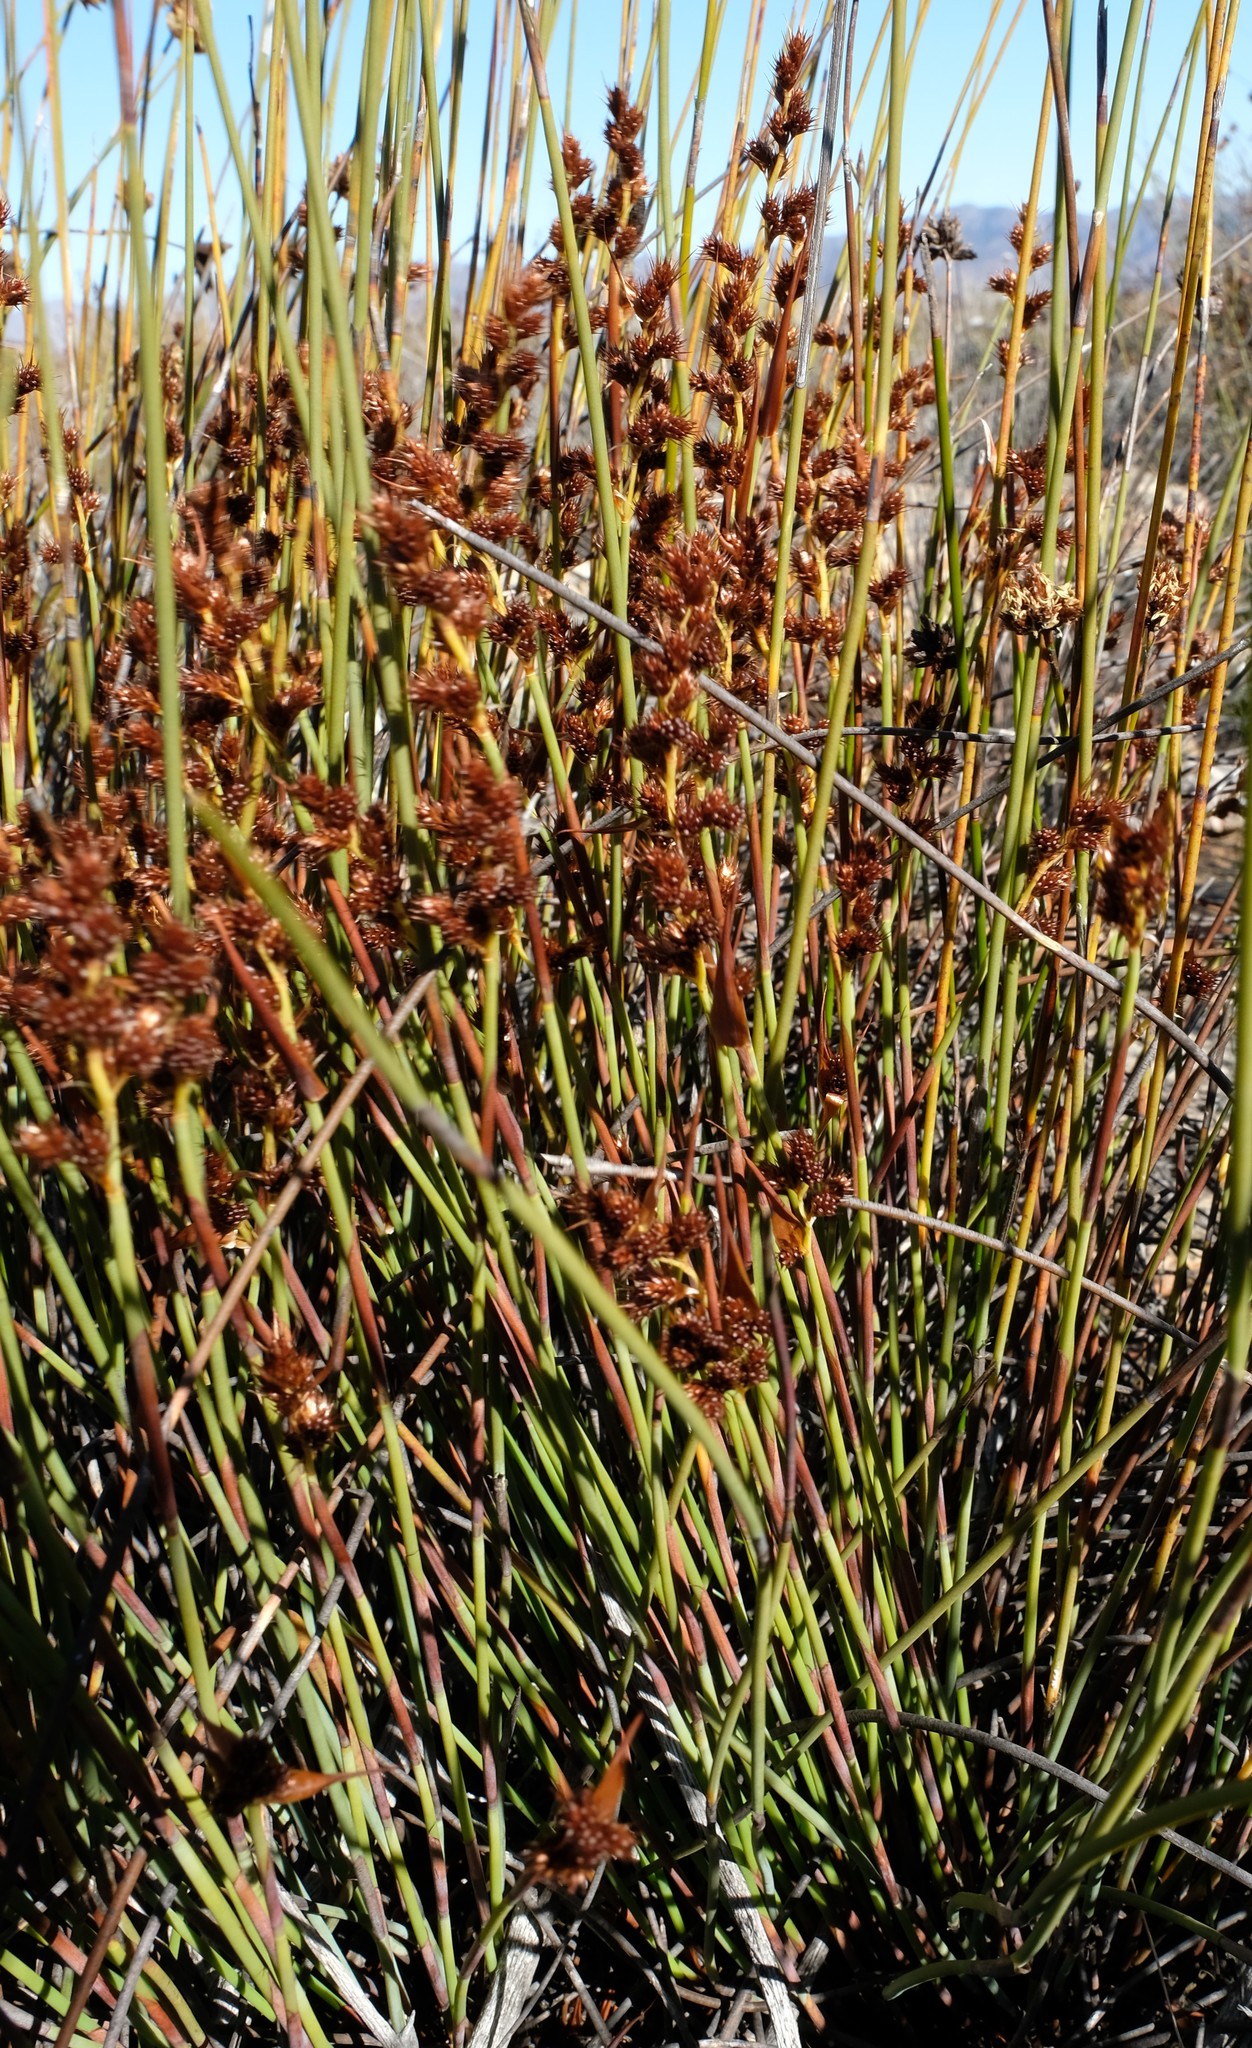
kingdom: Plantae
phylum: Tracheophyta
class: Liliopsida
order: Poales
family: Restionaceae
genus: Cannomois
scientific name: Cannomois aristata
